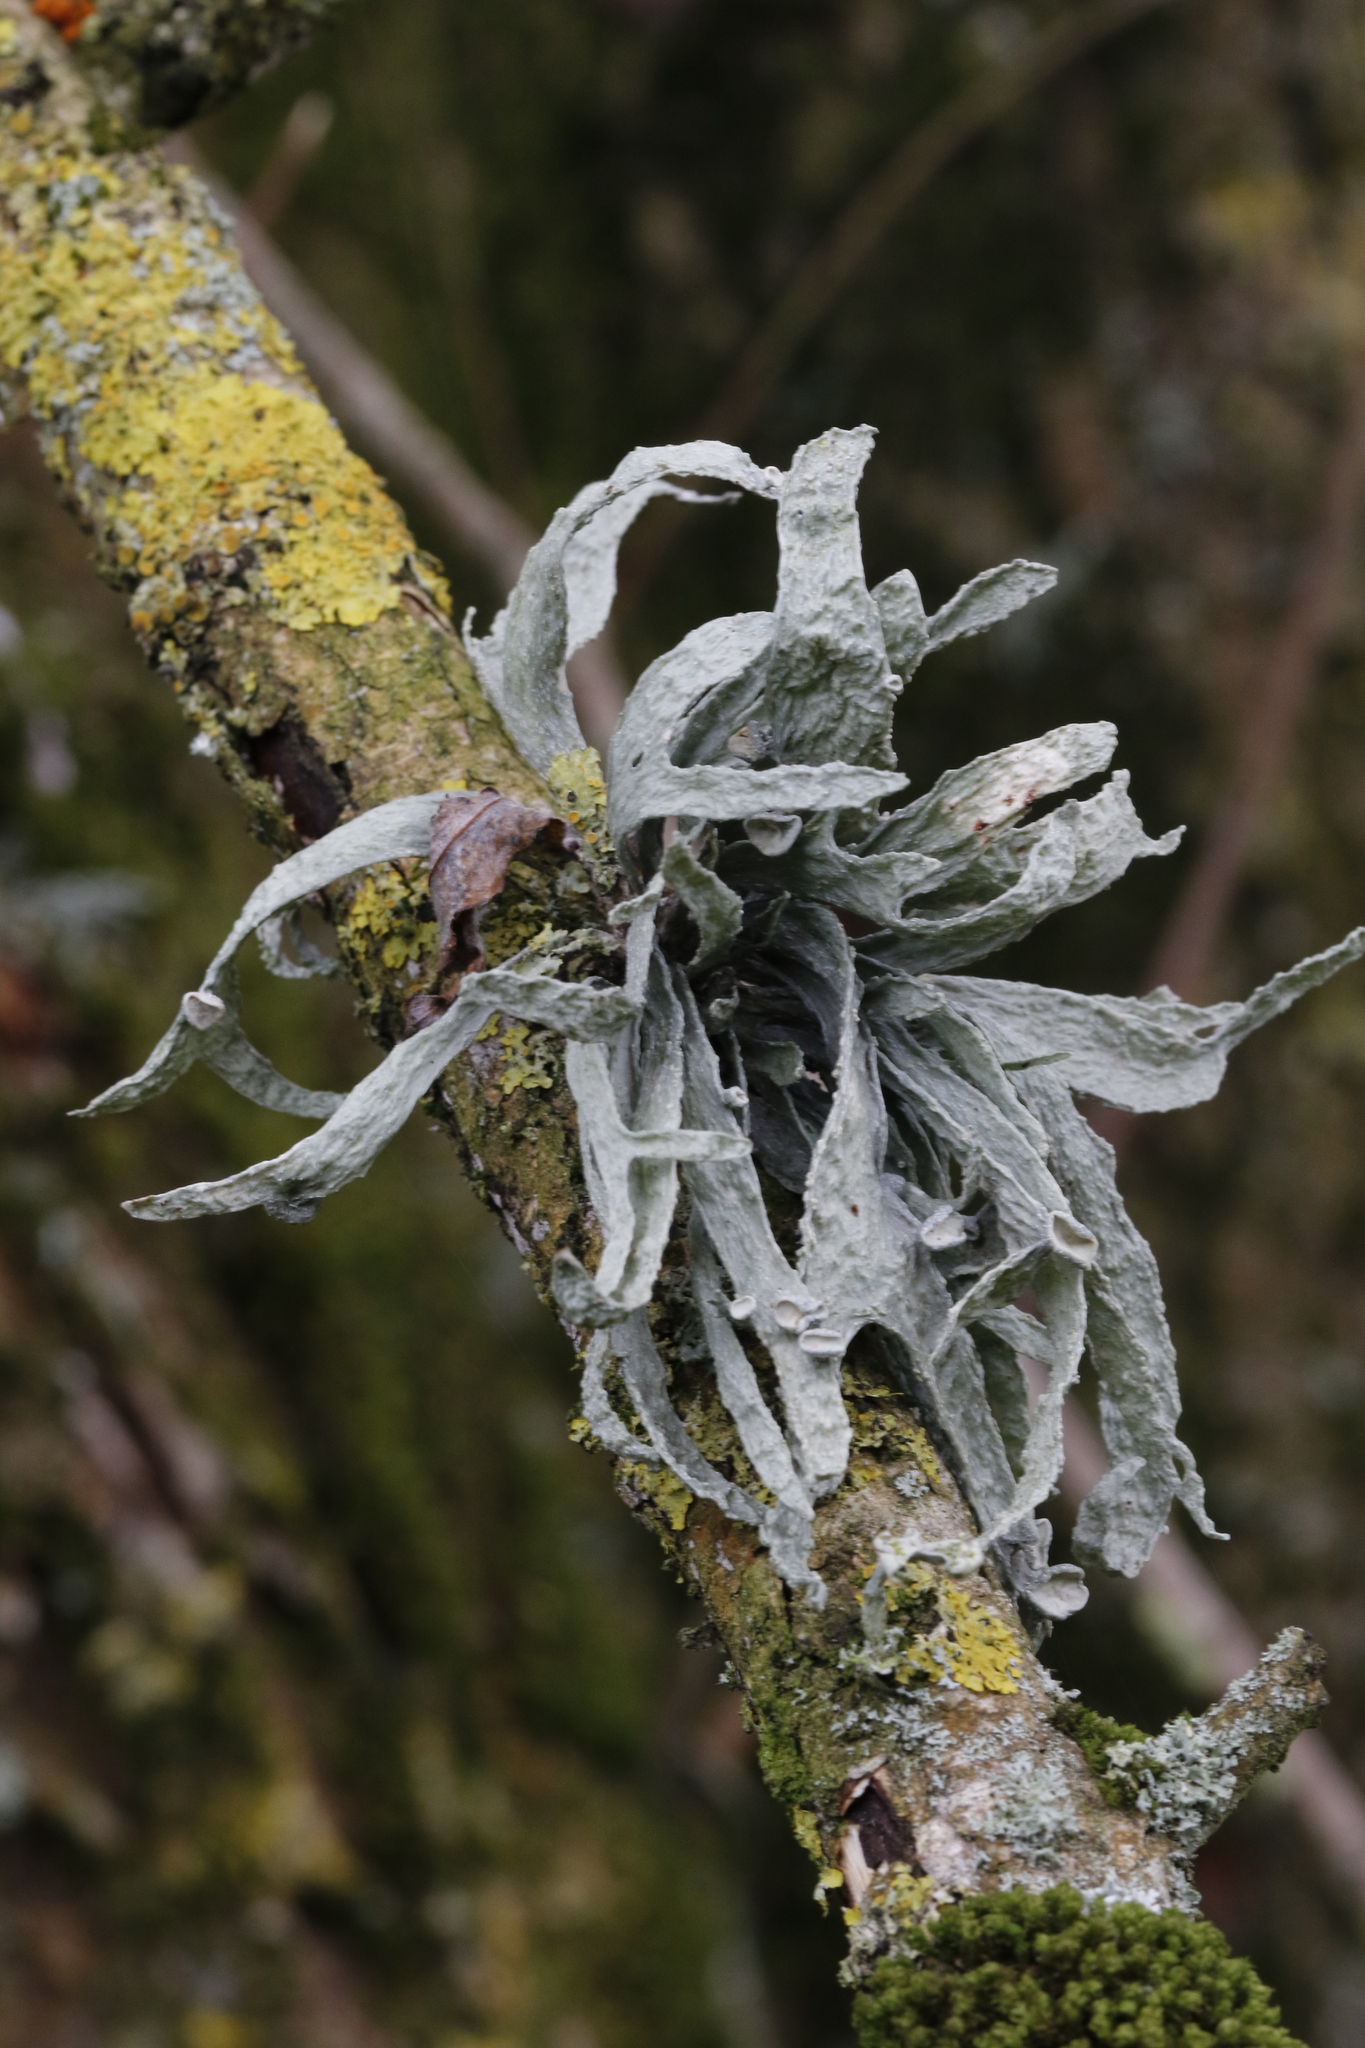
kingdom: Fungi
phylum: Ascomycota
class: Lecanoromycetes
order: Lecanorales
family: Ramalinaceae
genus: Ramalina
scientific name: Ramalina fraxinea
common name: Cartilage lichen
